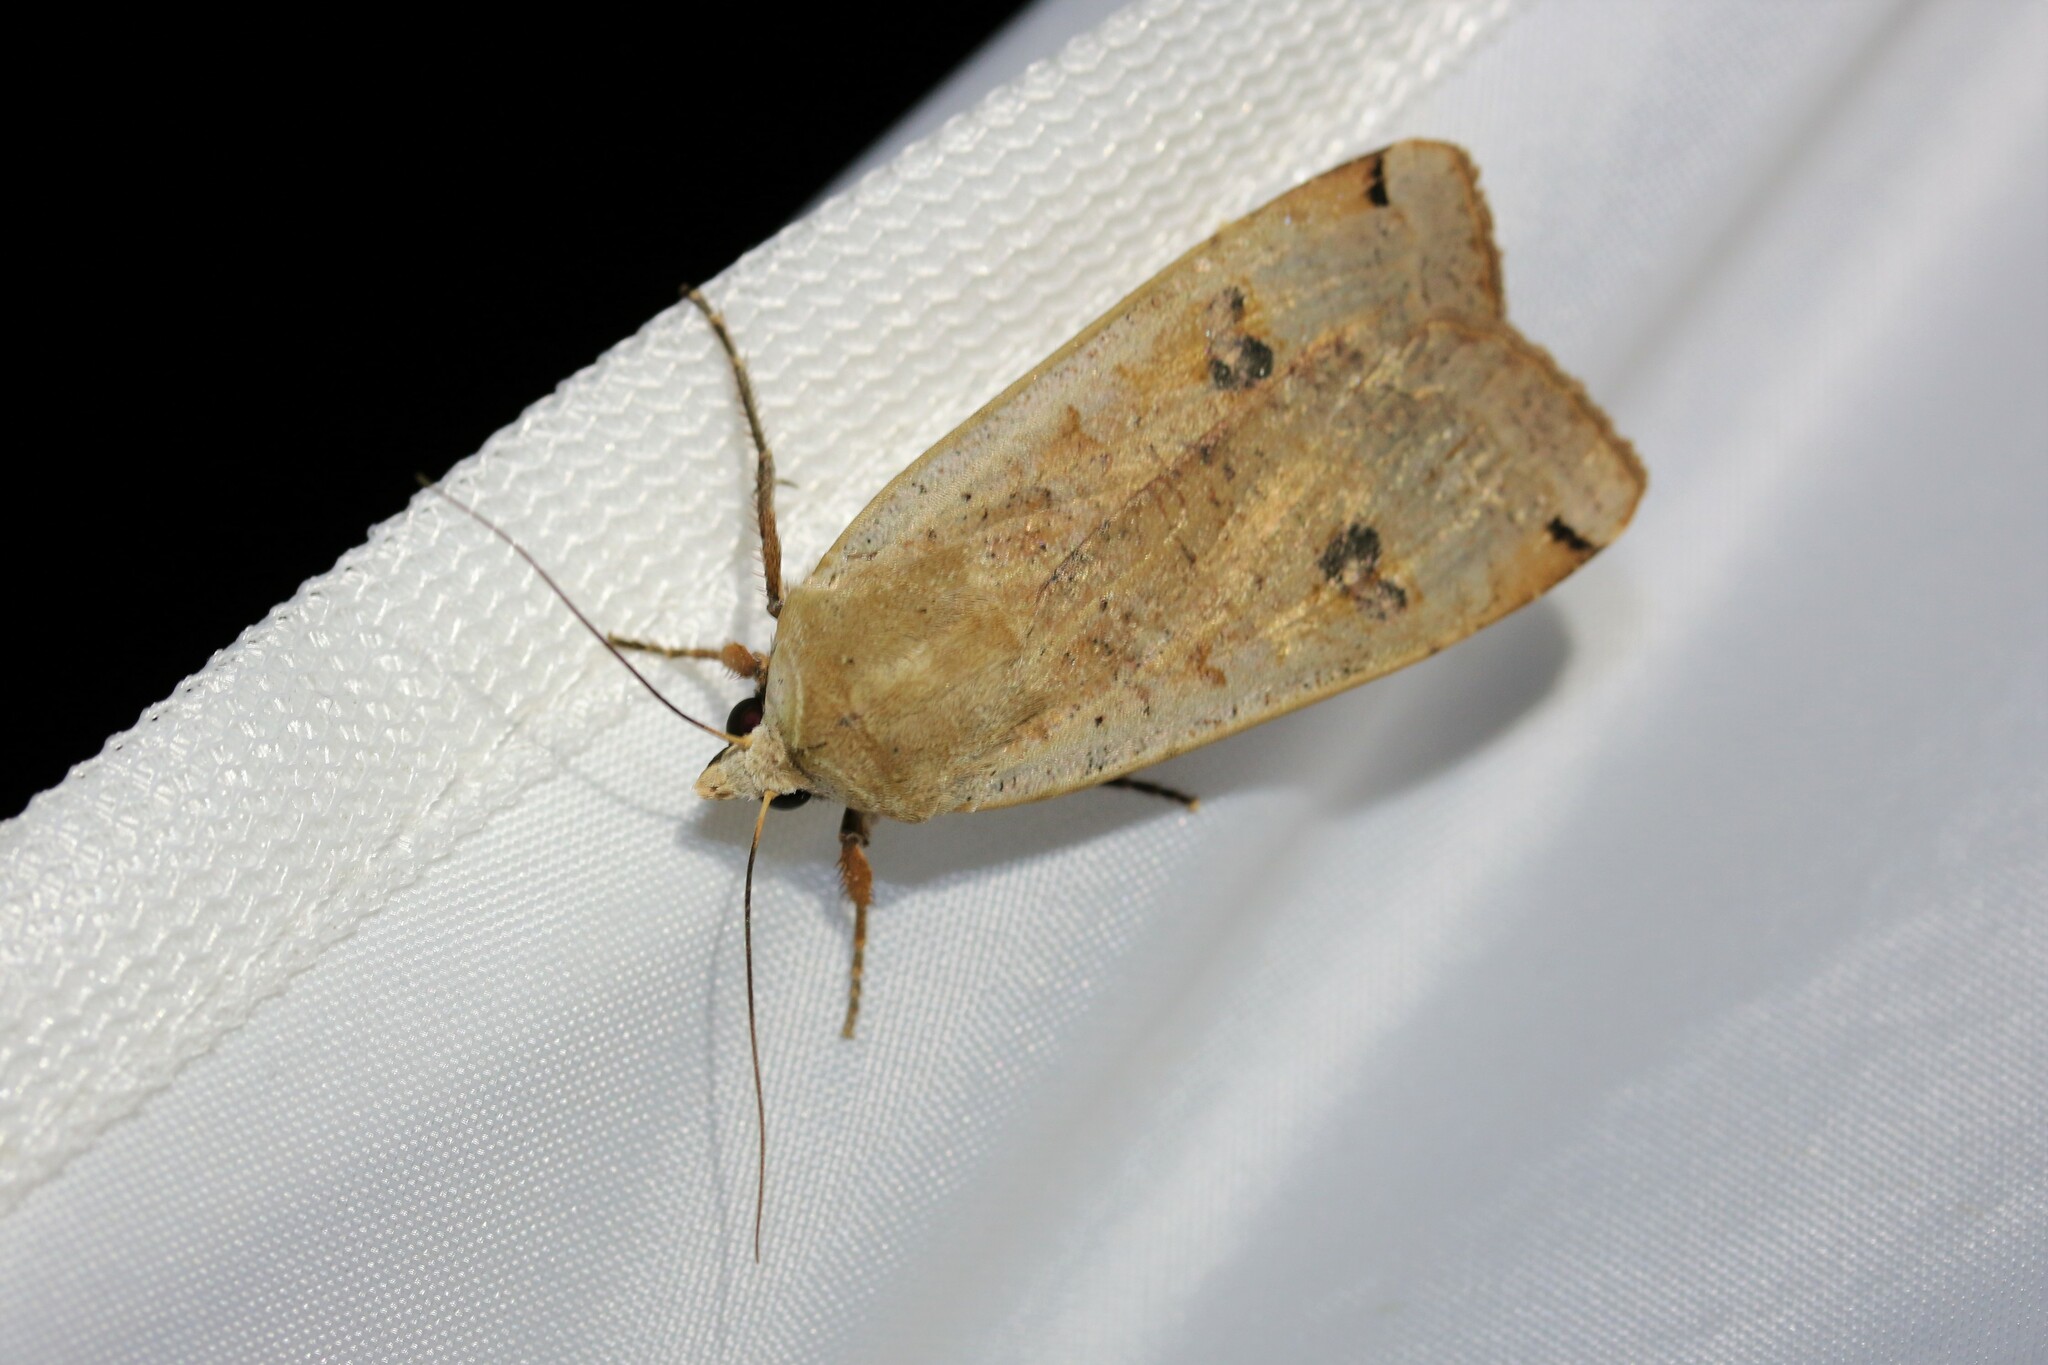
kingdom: Animalia
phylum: Arthropoda
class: Insecta
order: Lepidoptera
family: Noctuidae
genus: Noctua
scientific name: Noctua pronuba
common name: Large yellow underwing
